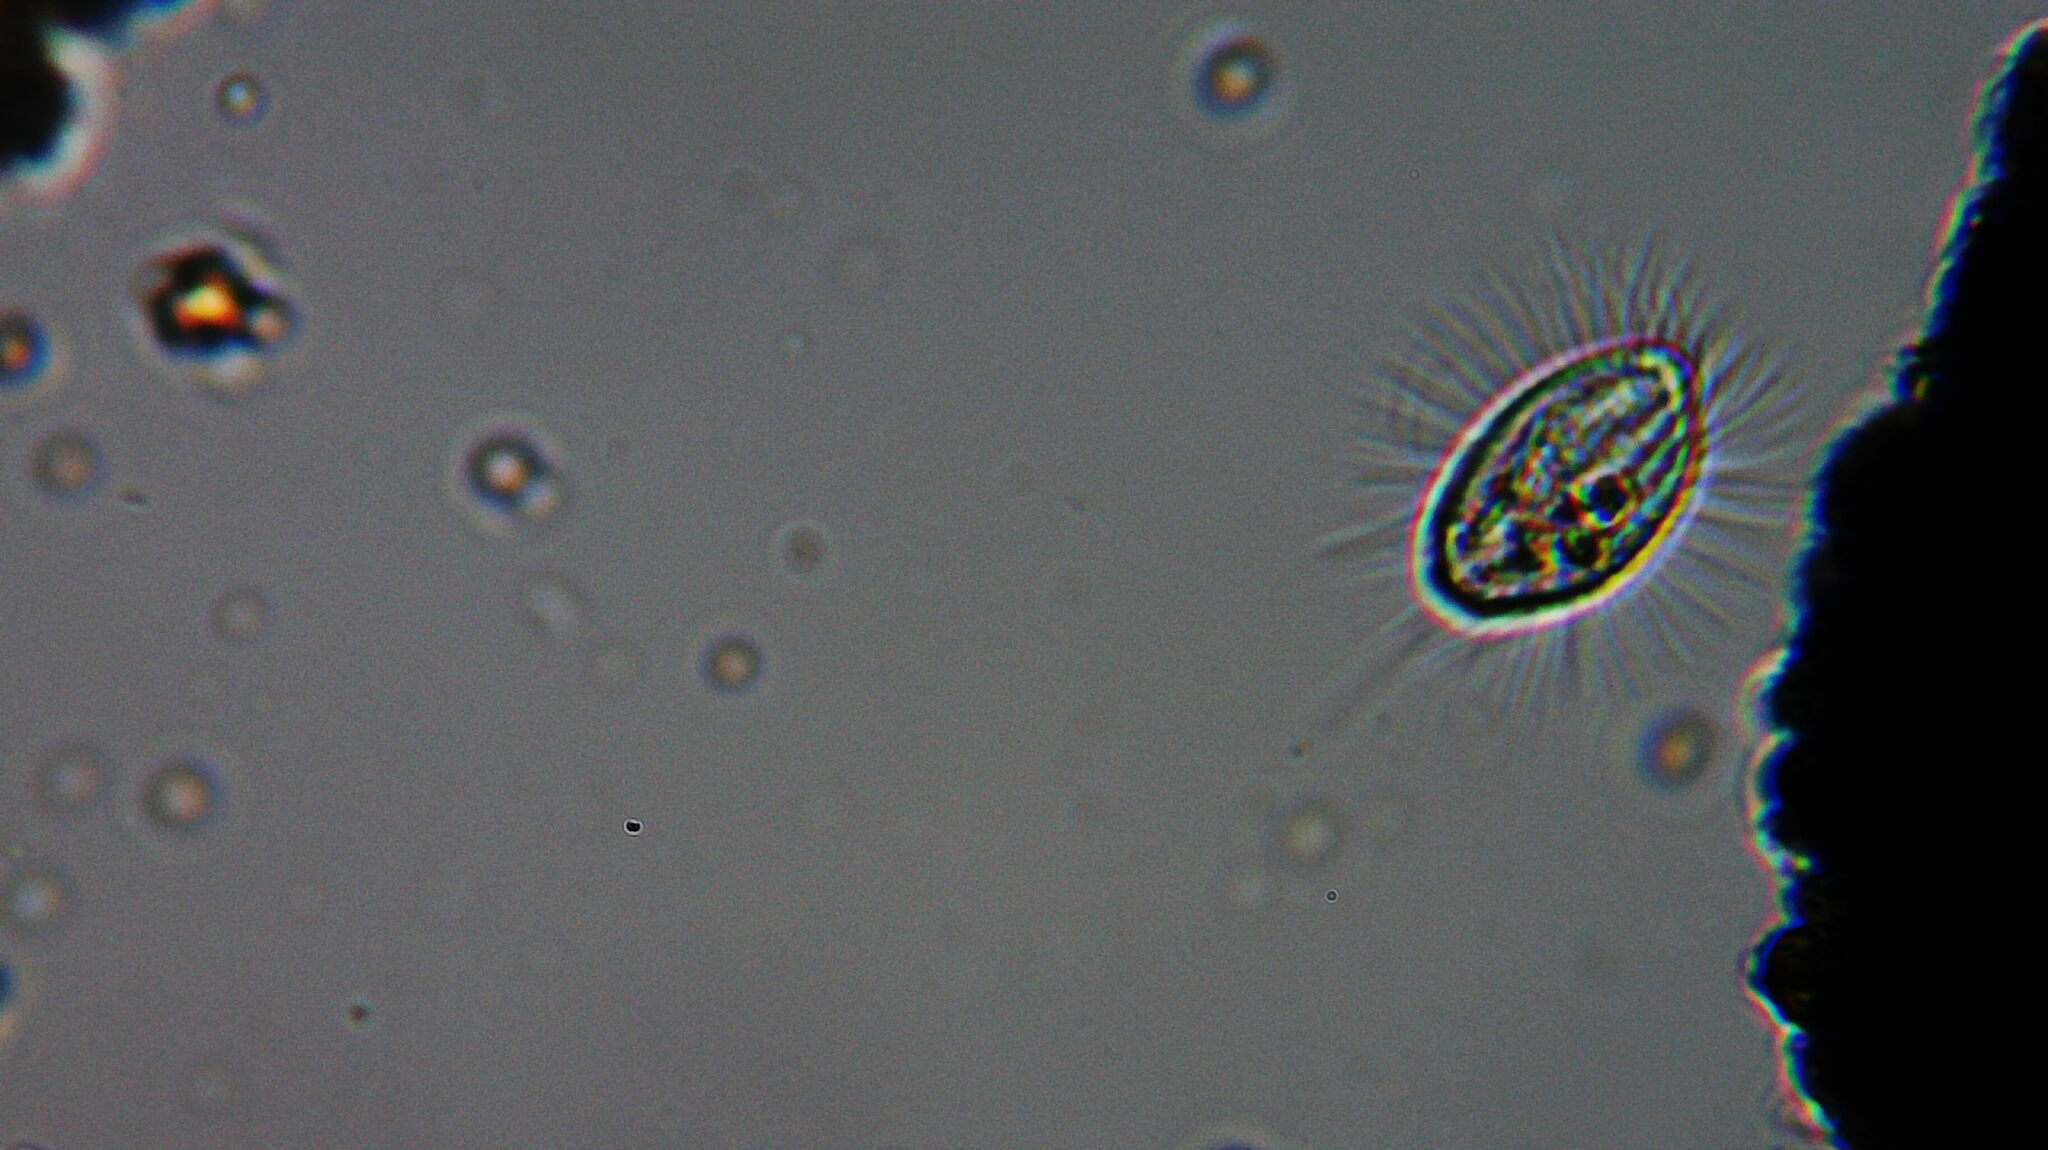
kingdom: Chromista
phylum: Ciliophora
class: Oligohymenophorea
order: Scuticociliatida
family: Cyclidiidae
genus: Cyclidium
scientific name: Cyclidium glaucoma
